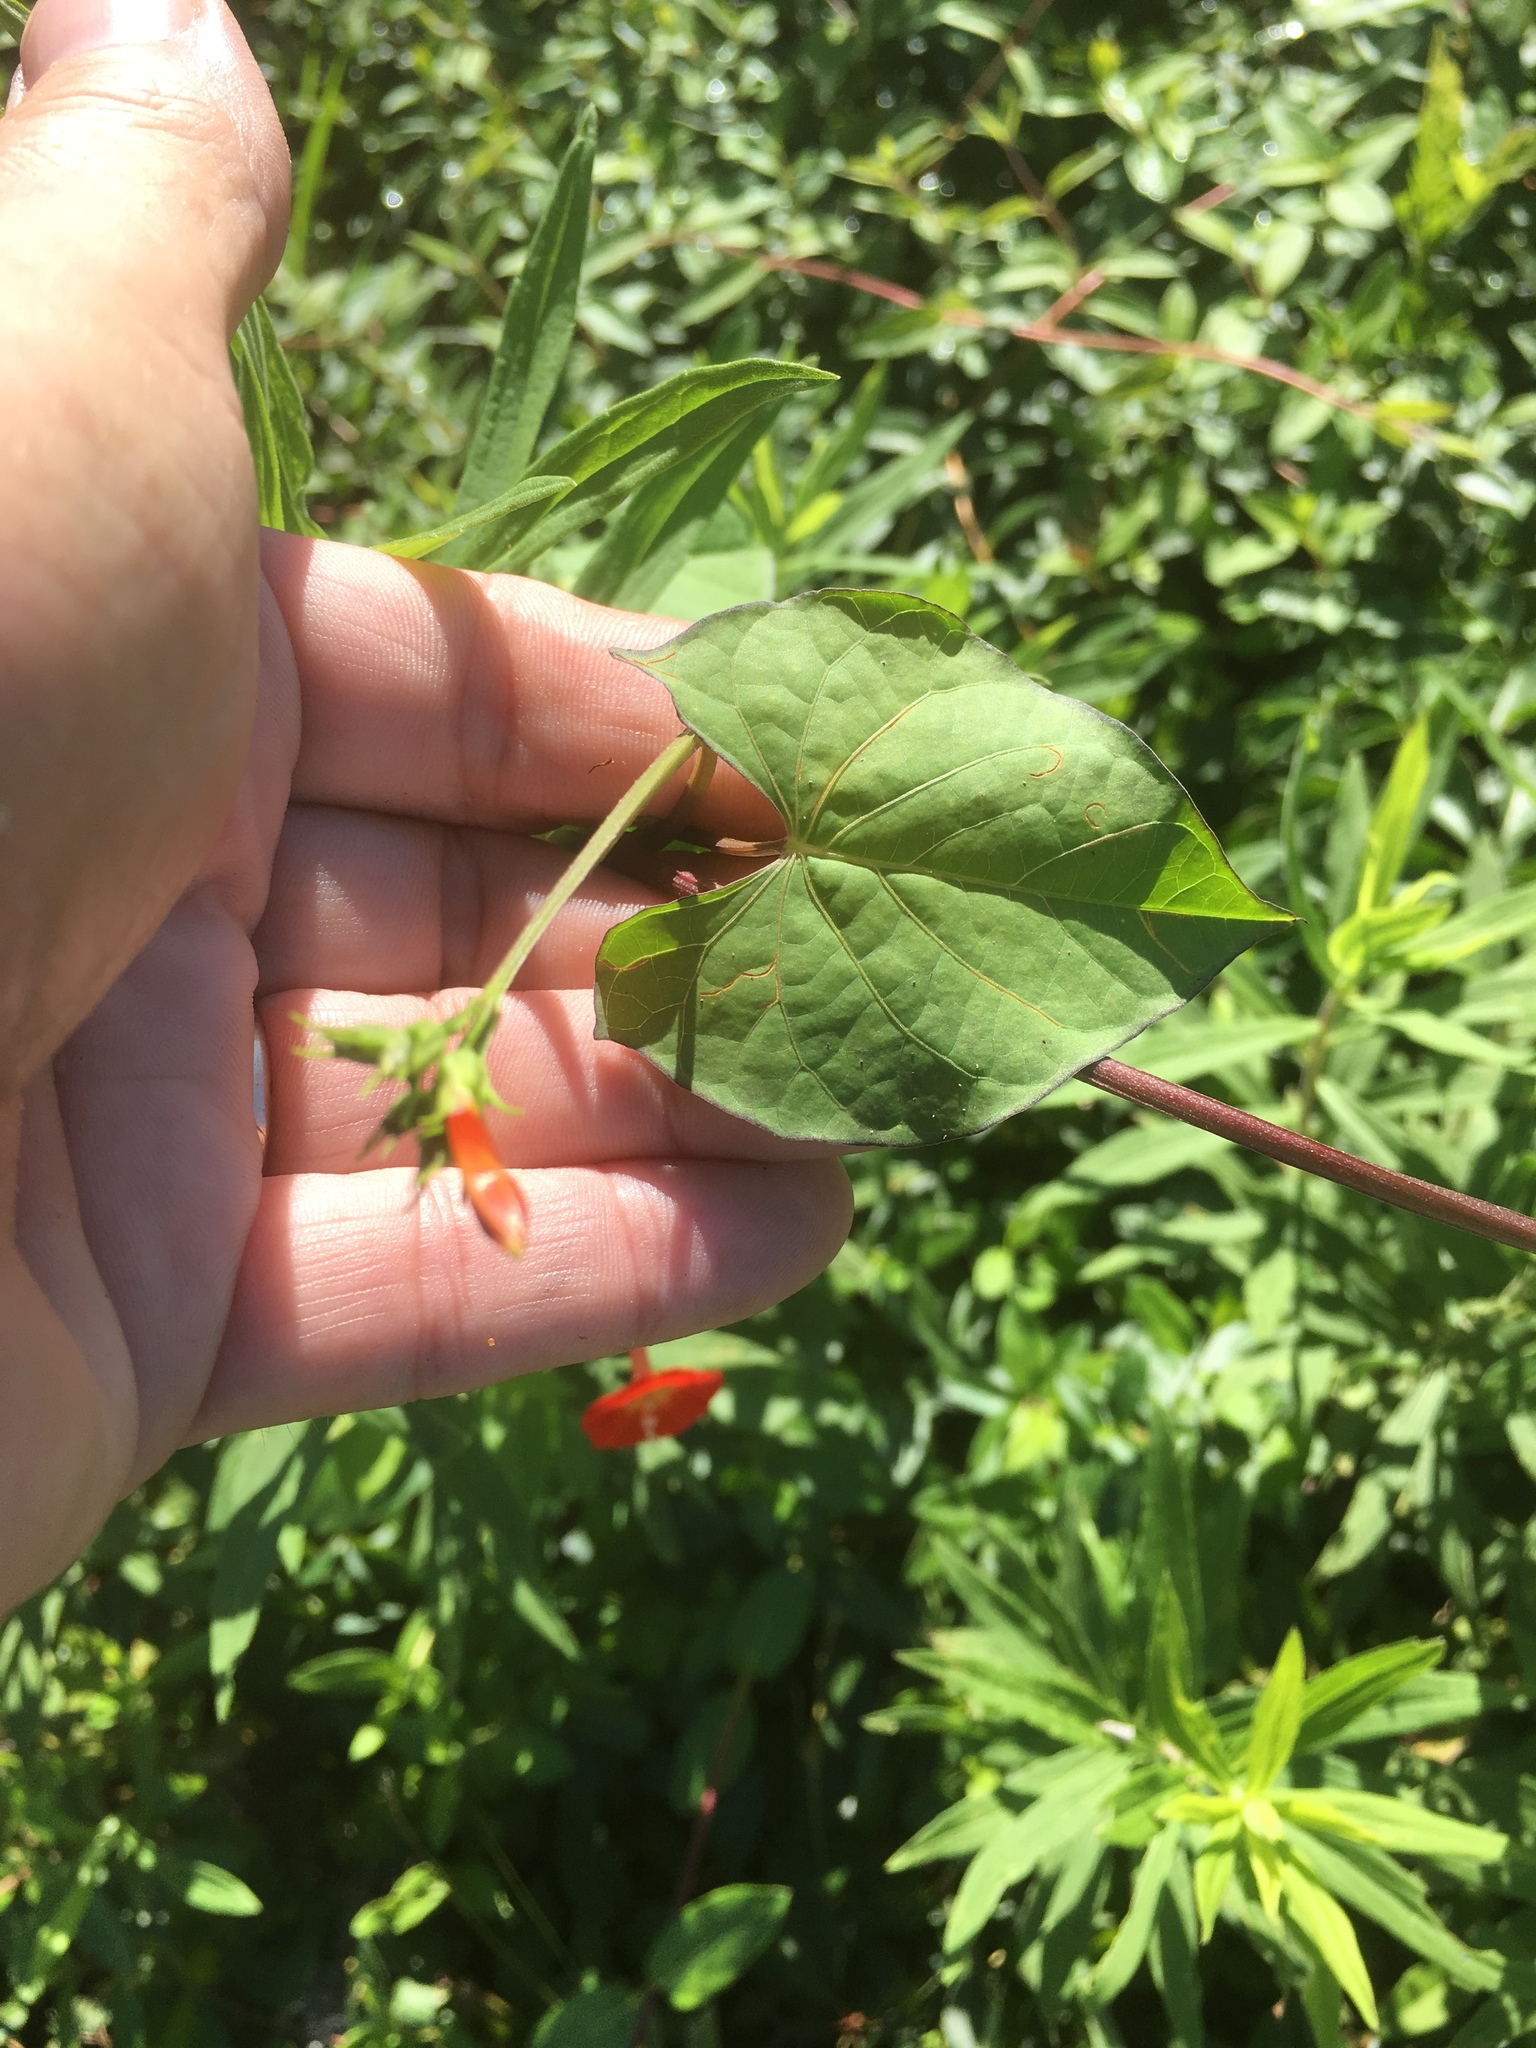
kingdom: Plantae
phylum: Tracheophyta
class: Magnoliopsida
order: Solanales
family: Convolvulaceae
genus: Ipomoea
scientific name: Ipomoea coccinea
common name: Red morning-glory
